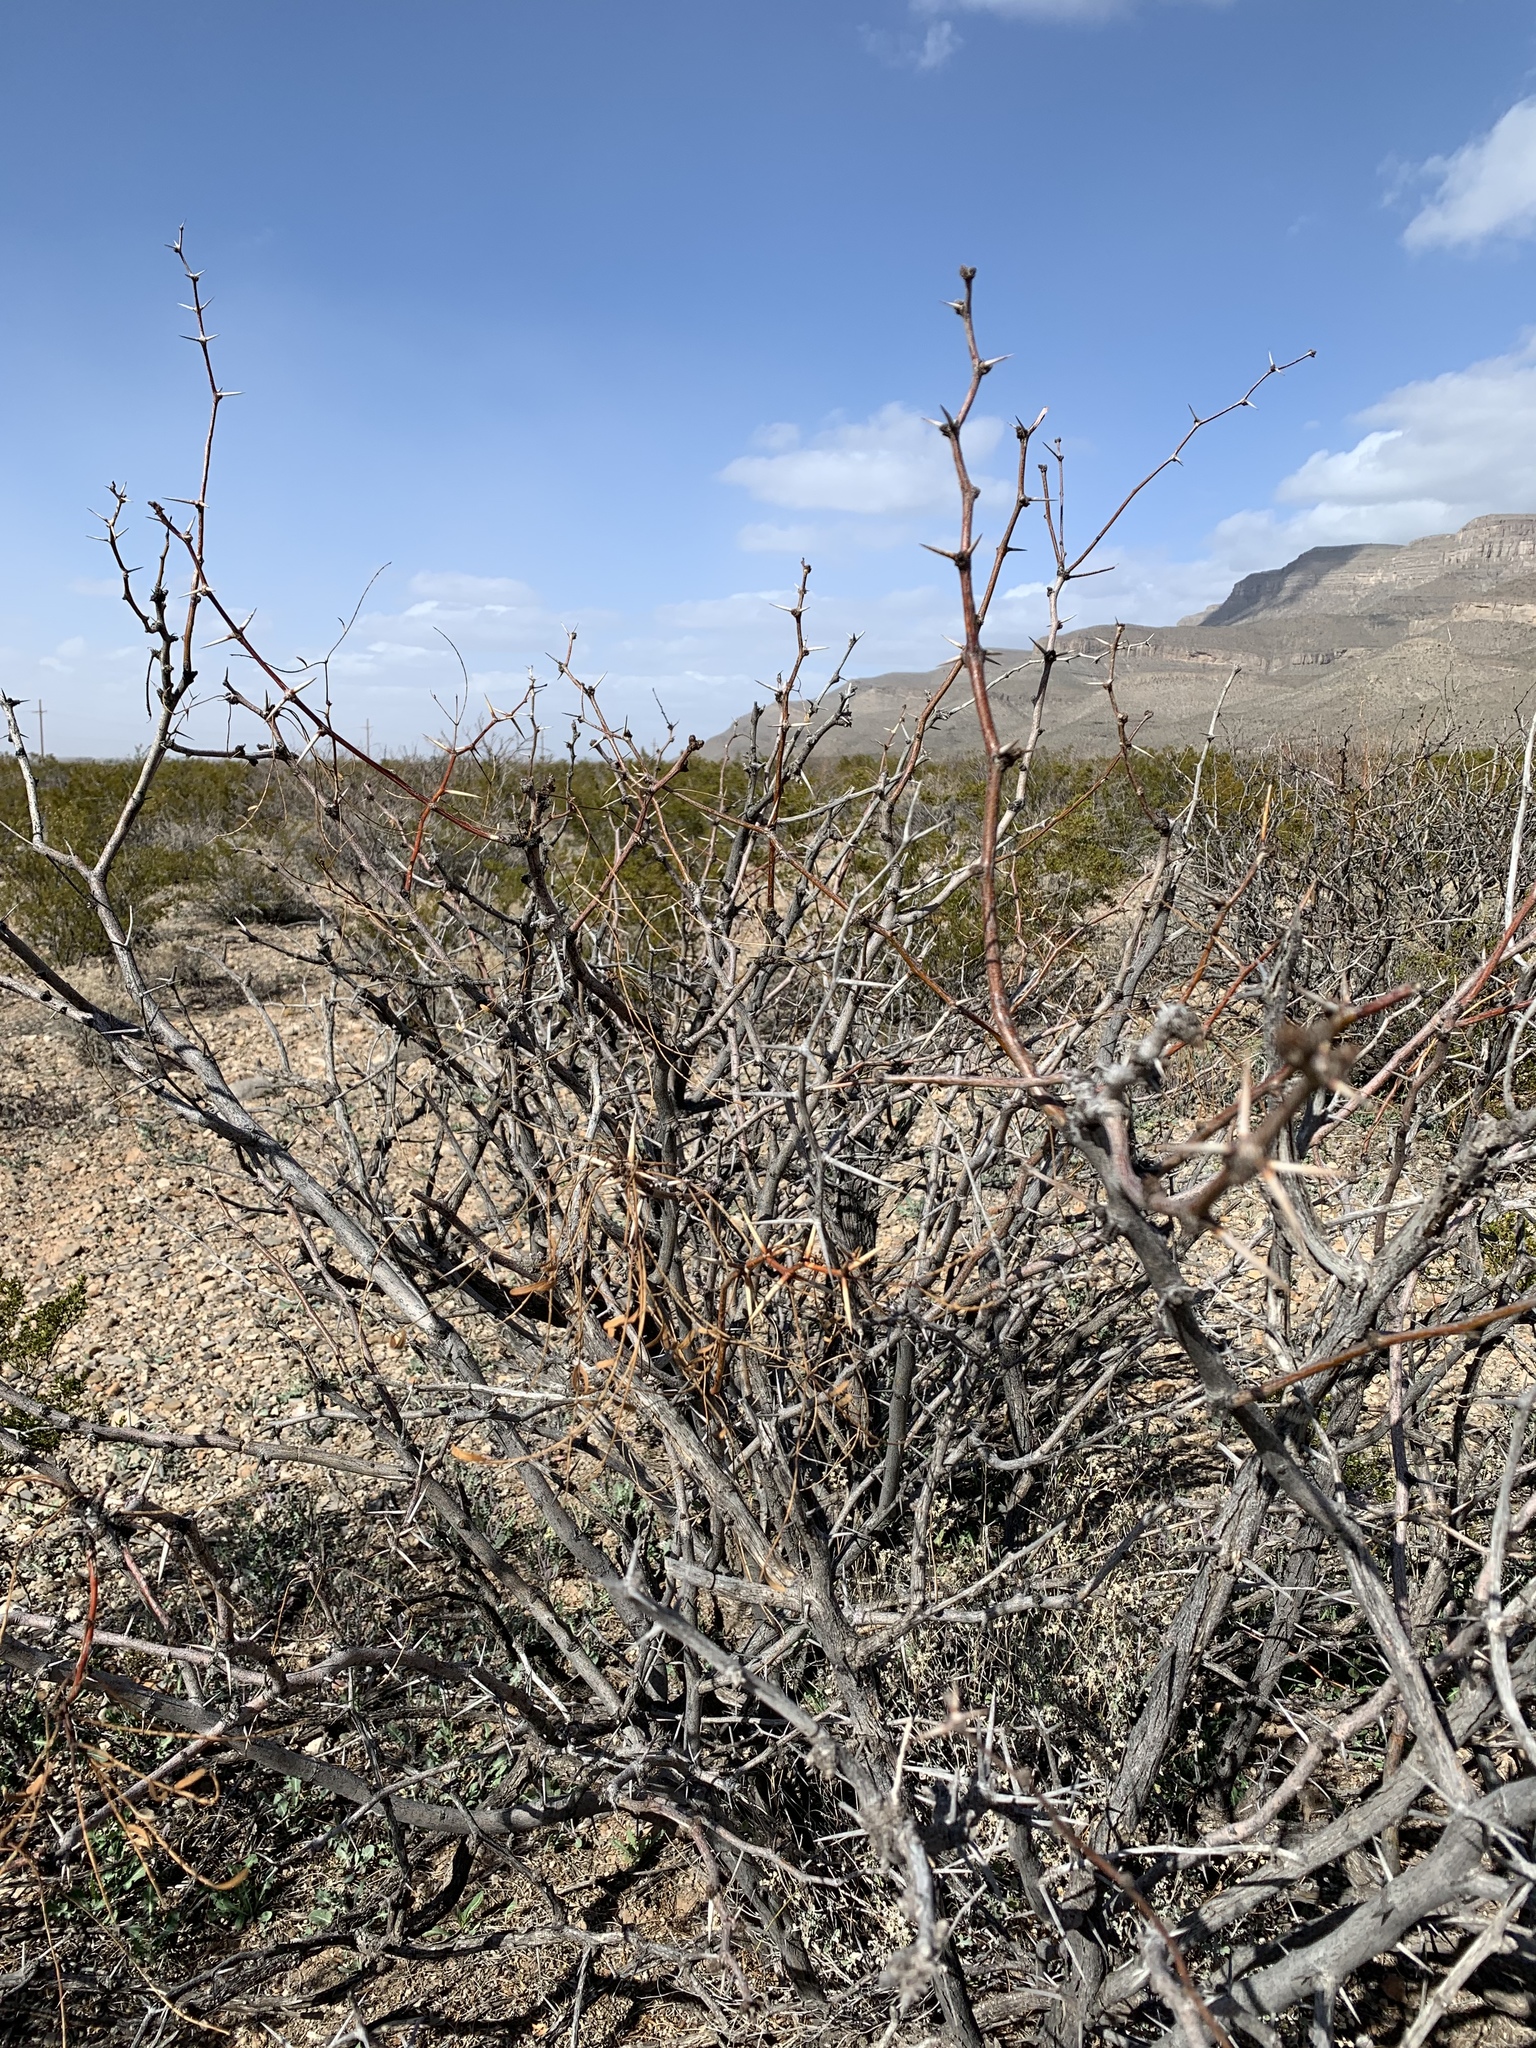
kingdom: Plantae
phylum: Tracheophyta
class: Magnoliopsida
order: Fabales
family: Fabaceae
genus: Prosopis
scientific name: Prosopis glandulosa
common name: Honey mesquite
